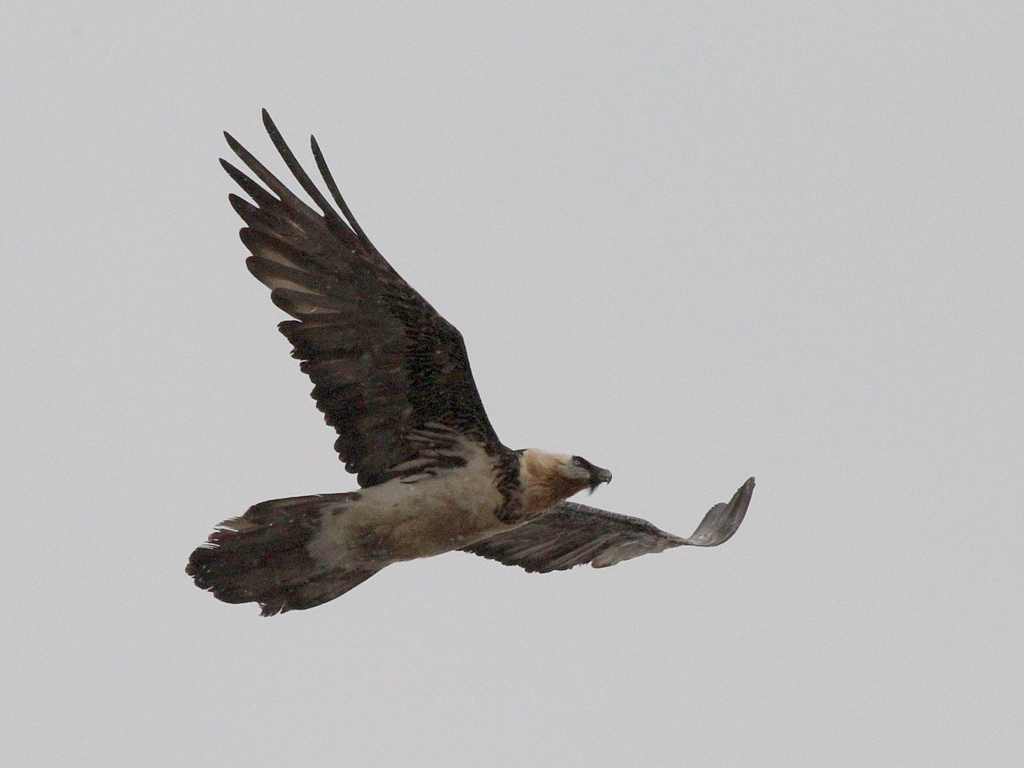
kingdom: Animalia
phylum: Chordata
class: Aves
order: Accipitriformes
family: Accipitridae
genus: Gypaetus
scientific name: Gypaetus barbatus
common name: Bearded vulture
